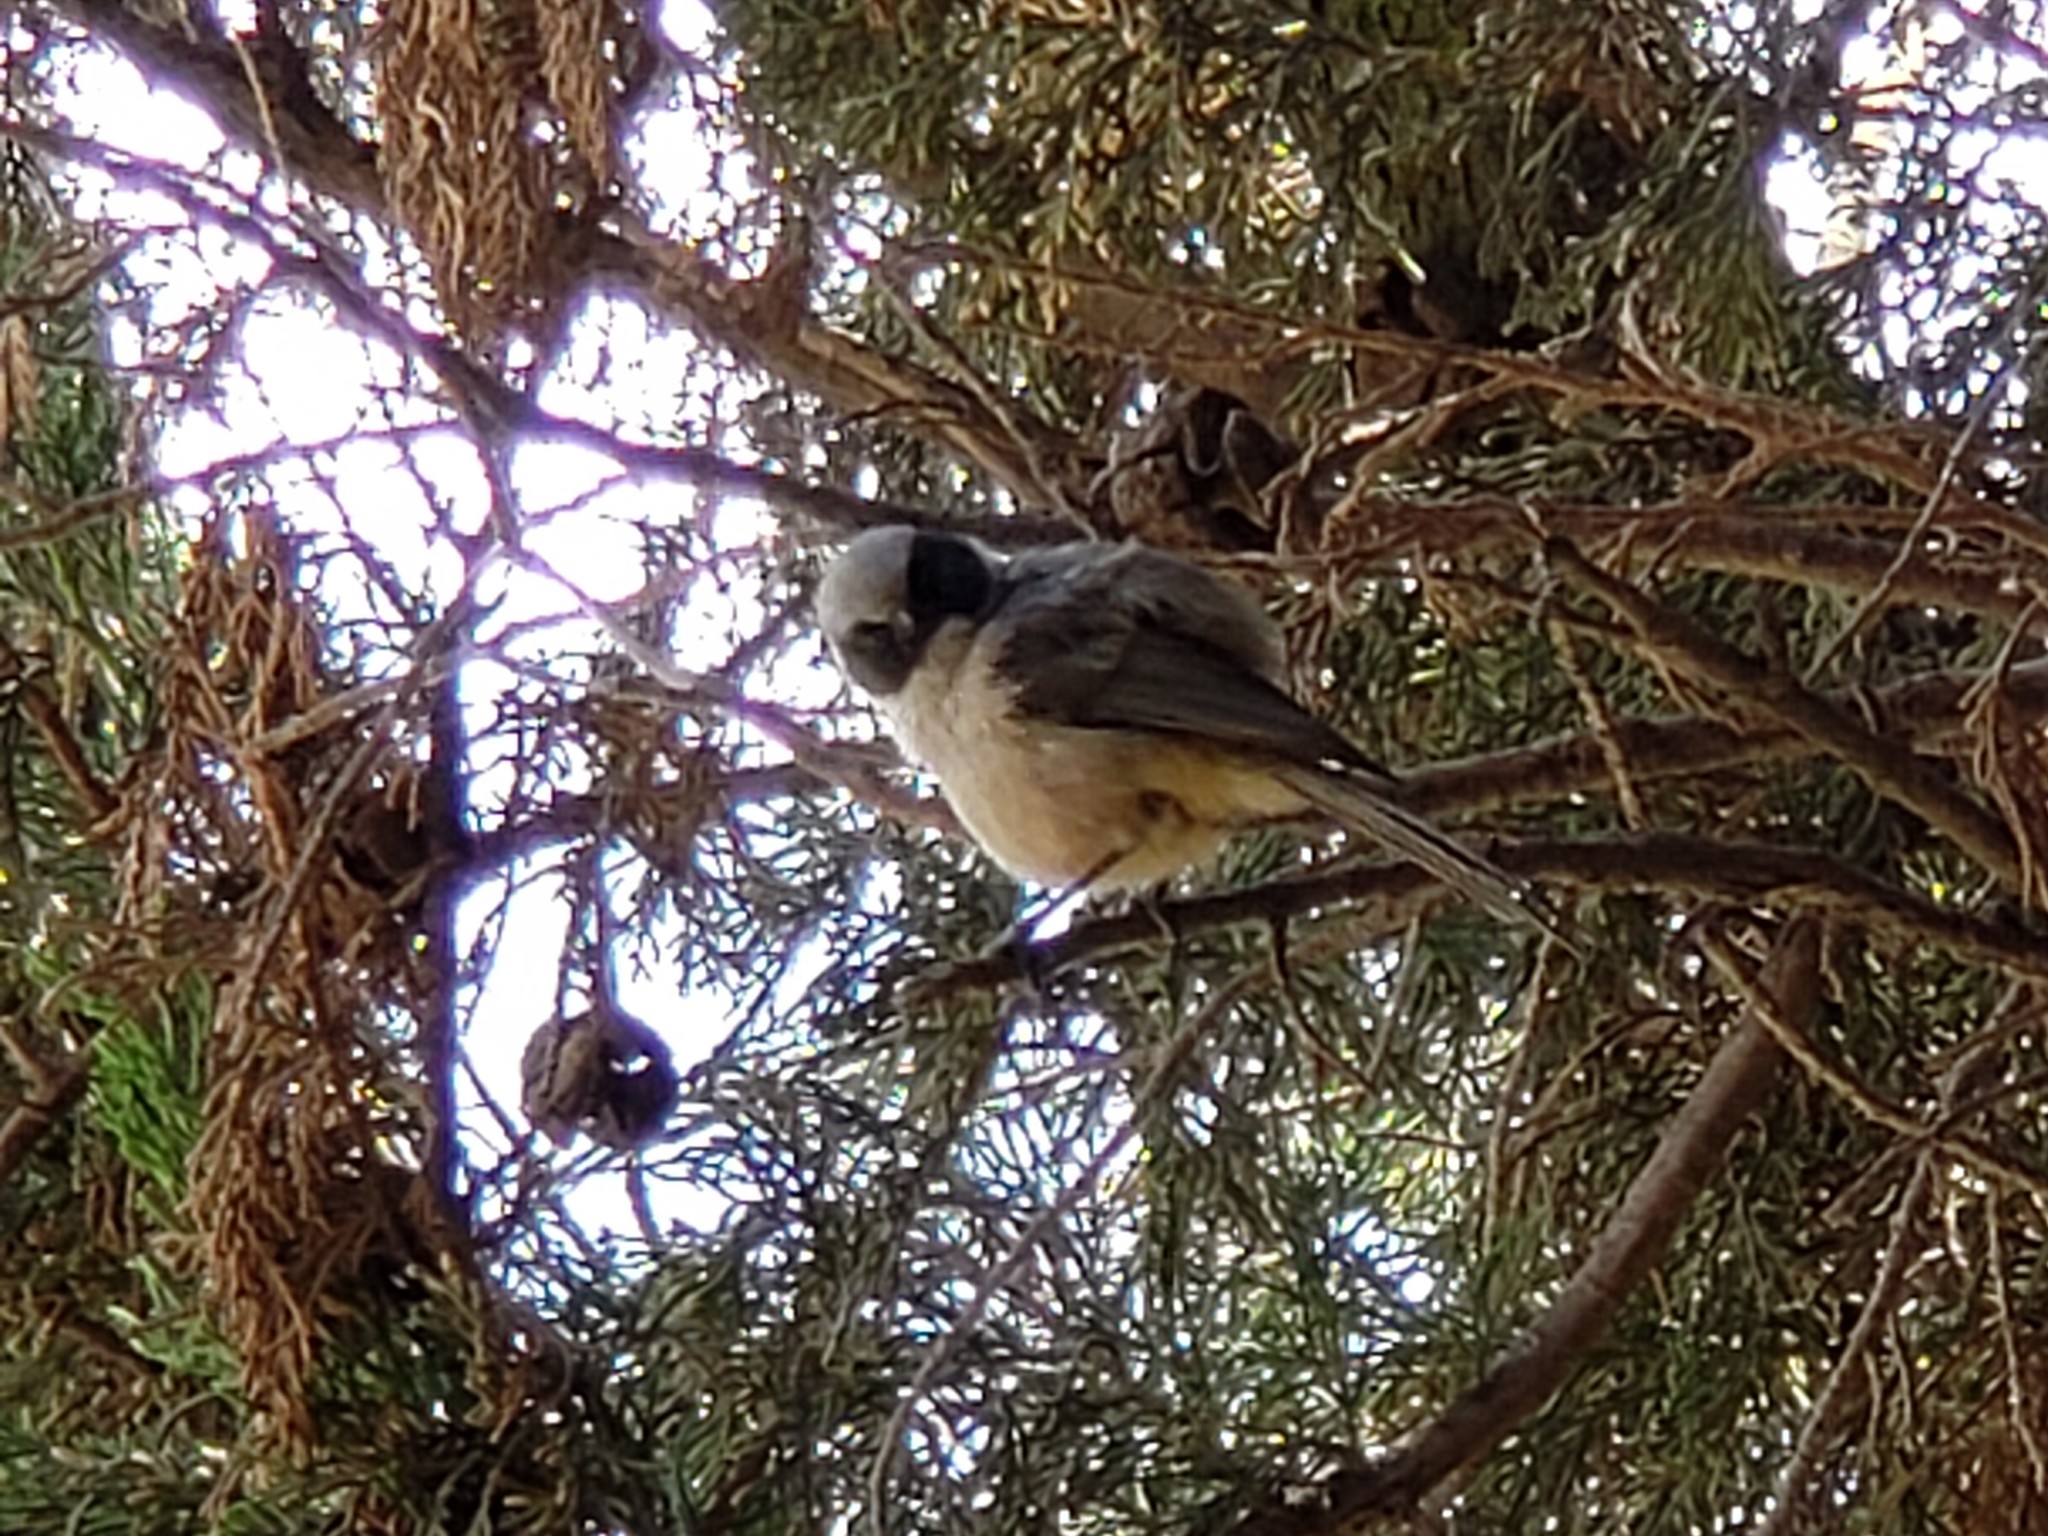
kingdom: Animalia
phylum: Chordata
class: Aves
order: Passeriformes
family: Aegithalidae
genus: Psaltriparus
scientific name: Psaltriparus minimus
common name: American bushtit
